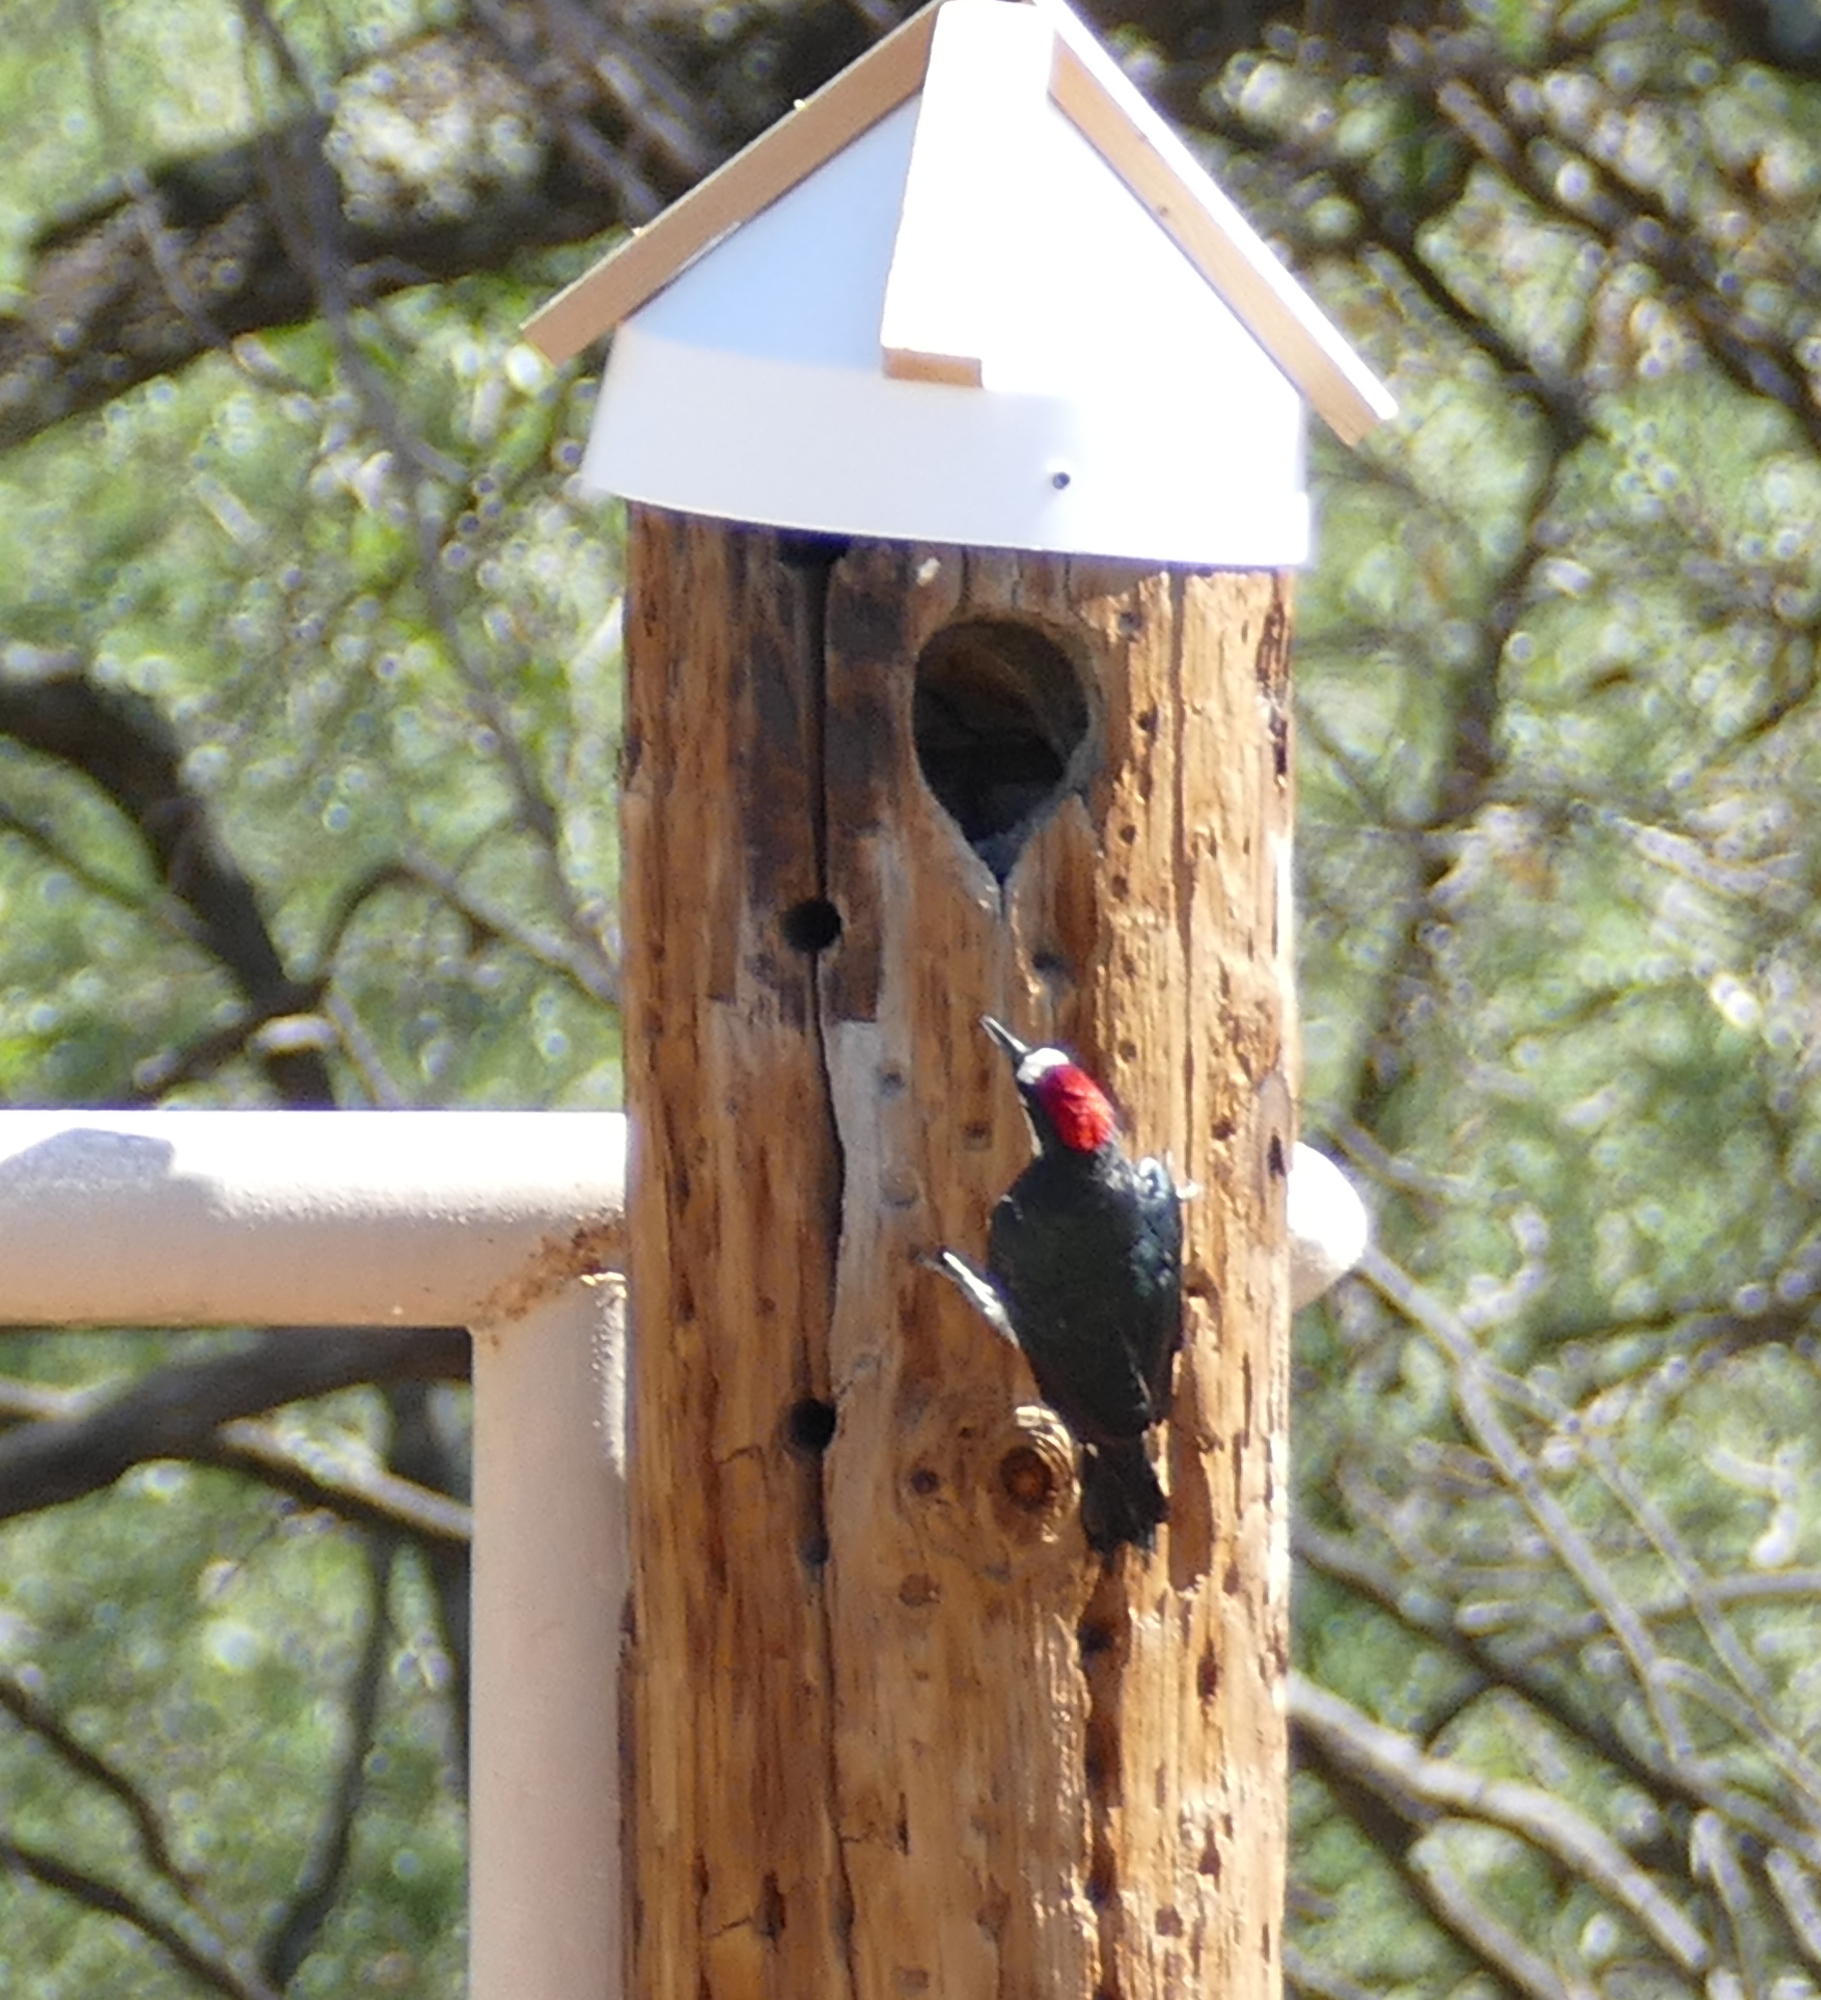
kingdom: Animalia
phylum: Chordata
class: Aves
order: Piciformes
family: Picidae
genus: Melanerpes
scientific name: Melanerpes formicivorus
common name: Acorn woodpecker
